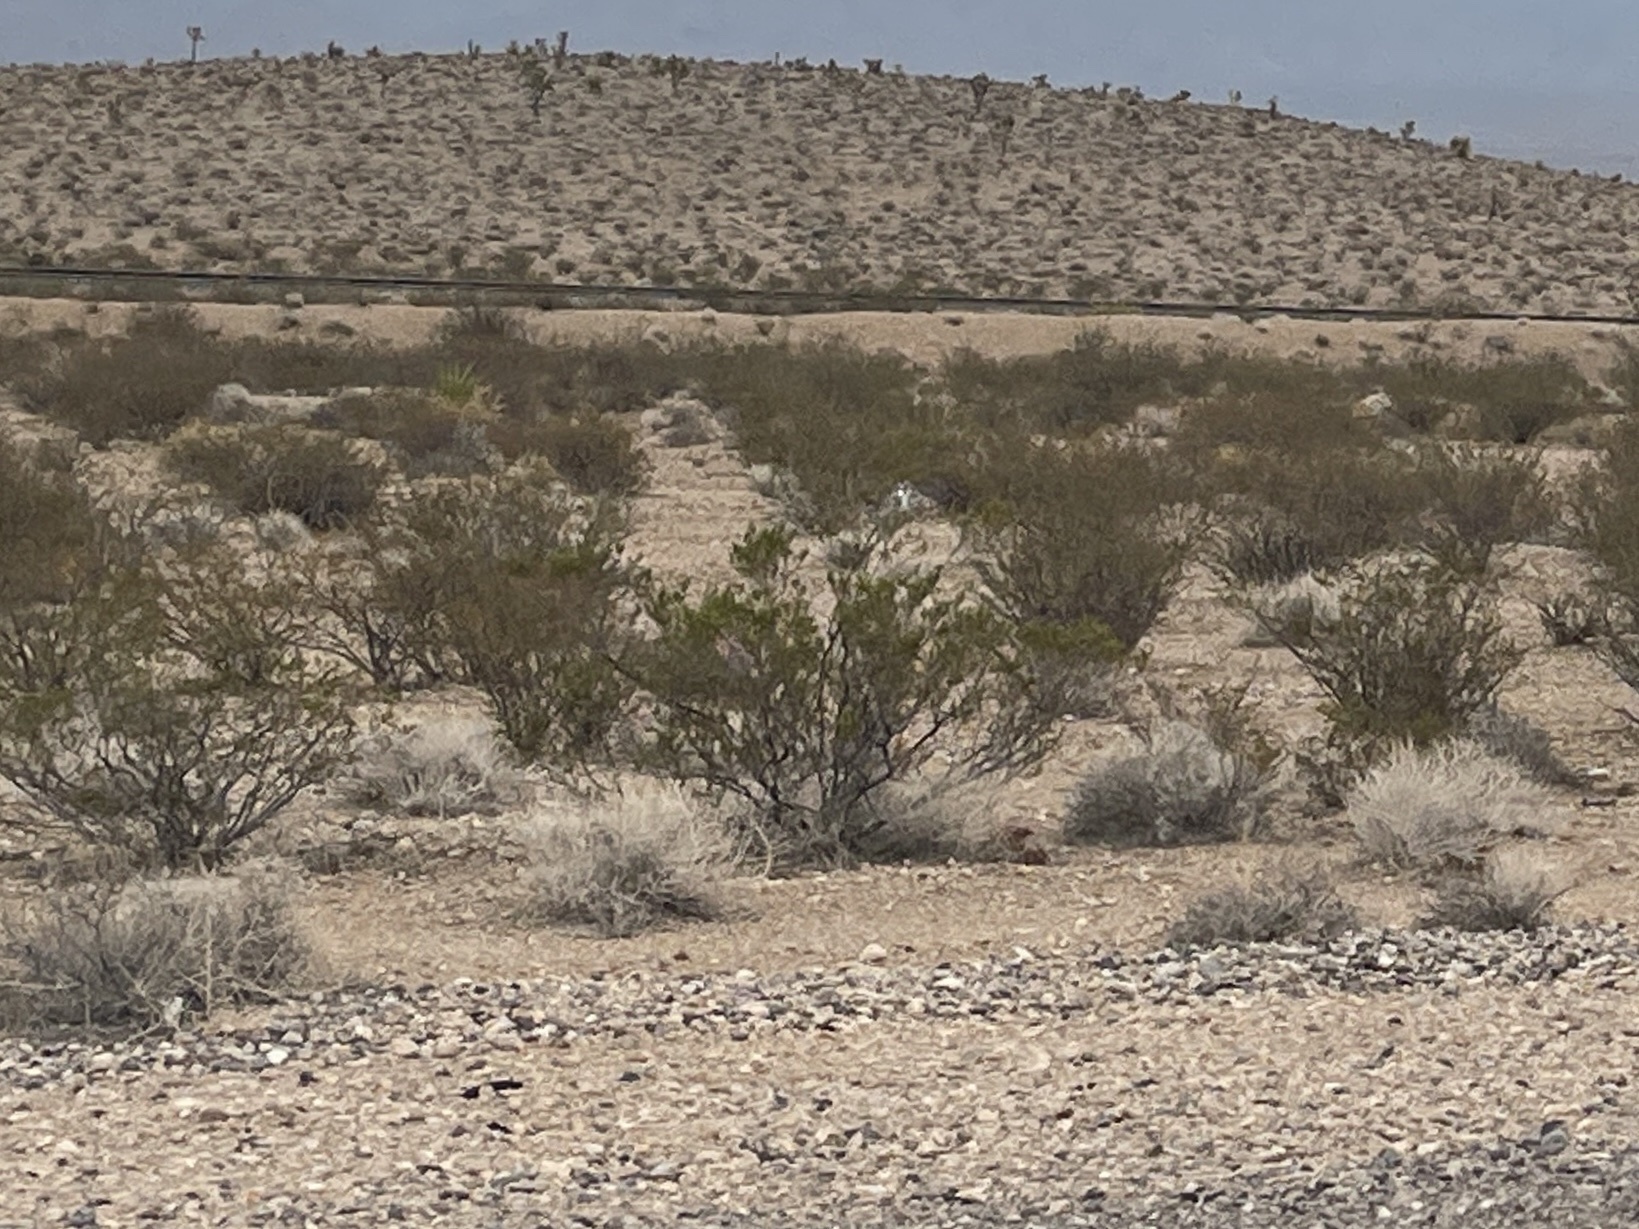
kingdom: Plantae
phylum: Tracheophyta
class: Magnoliopsida
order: Zygophyllales
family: Zygophyllaceae
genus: Larrea
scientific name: Larrea tridentata
